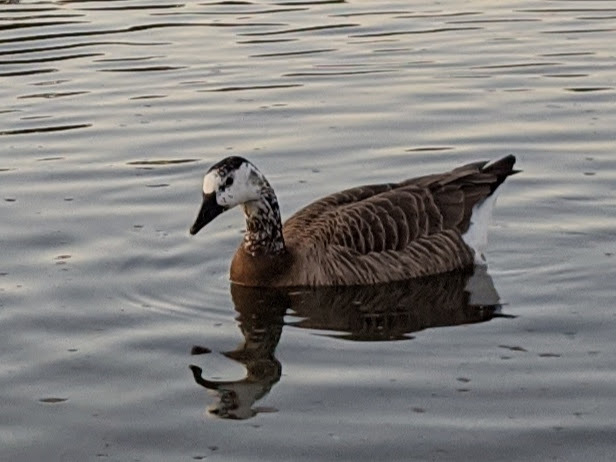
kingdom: Animalia
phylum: Chordata
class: Aves
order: Anseriformes
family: Anatidae
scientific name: Anatidae
